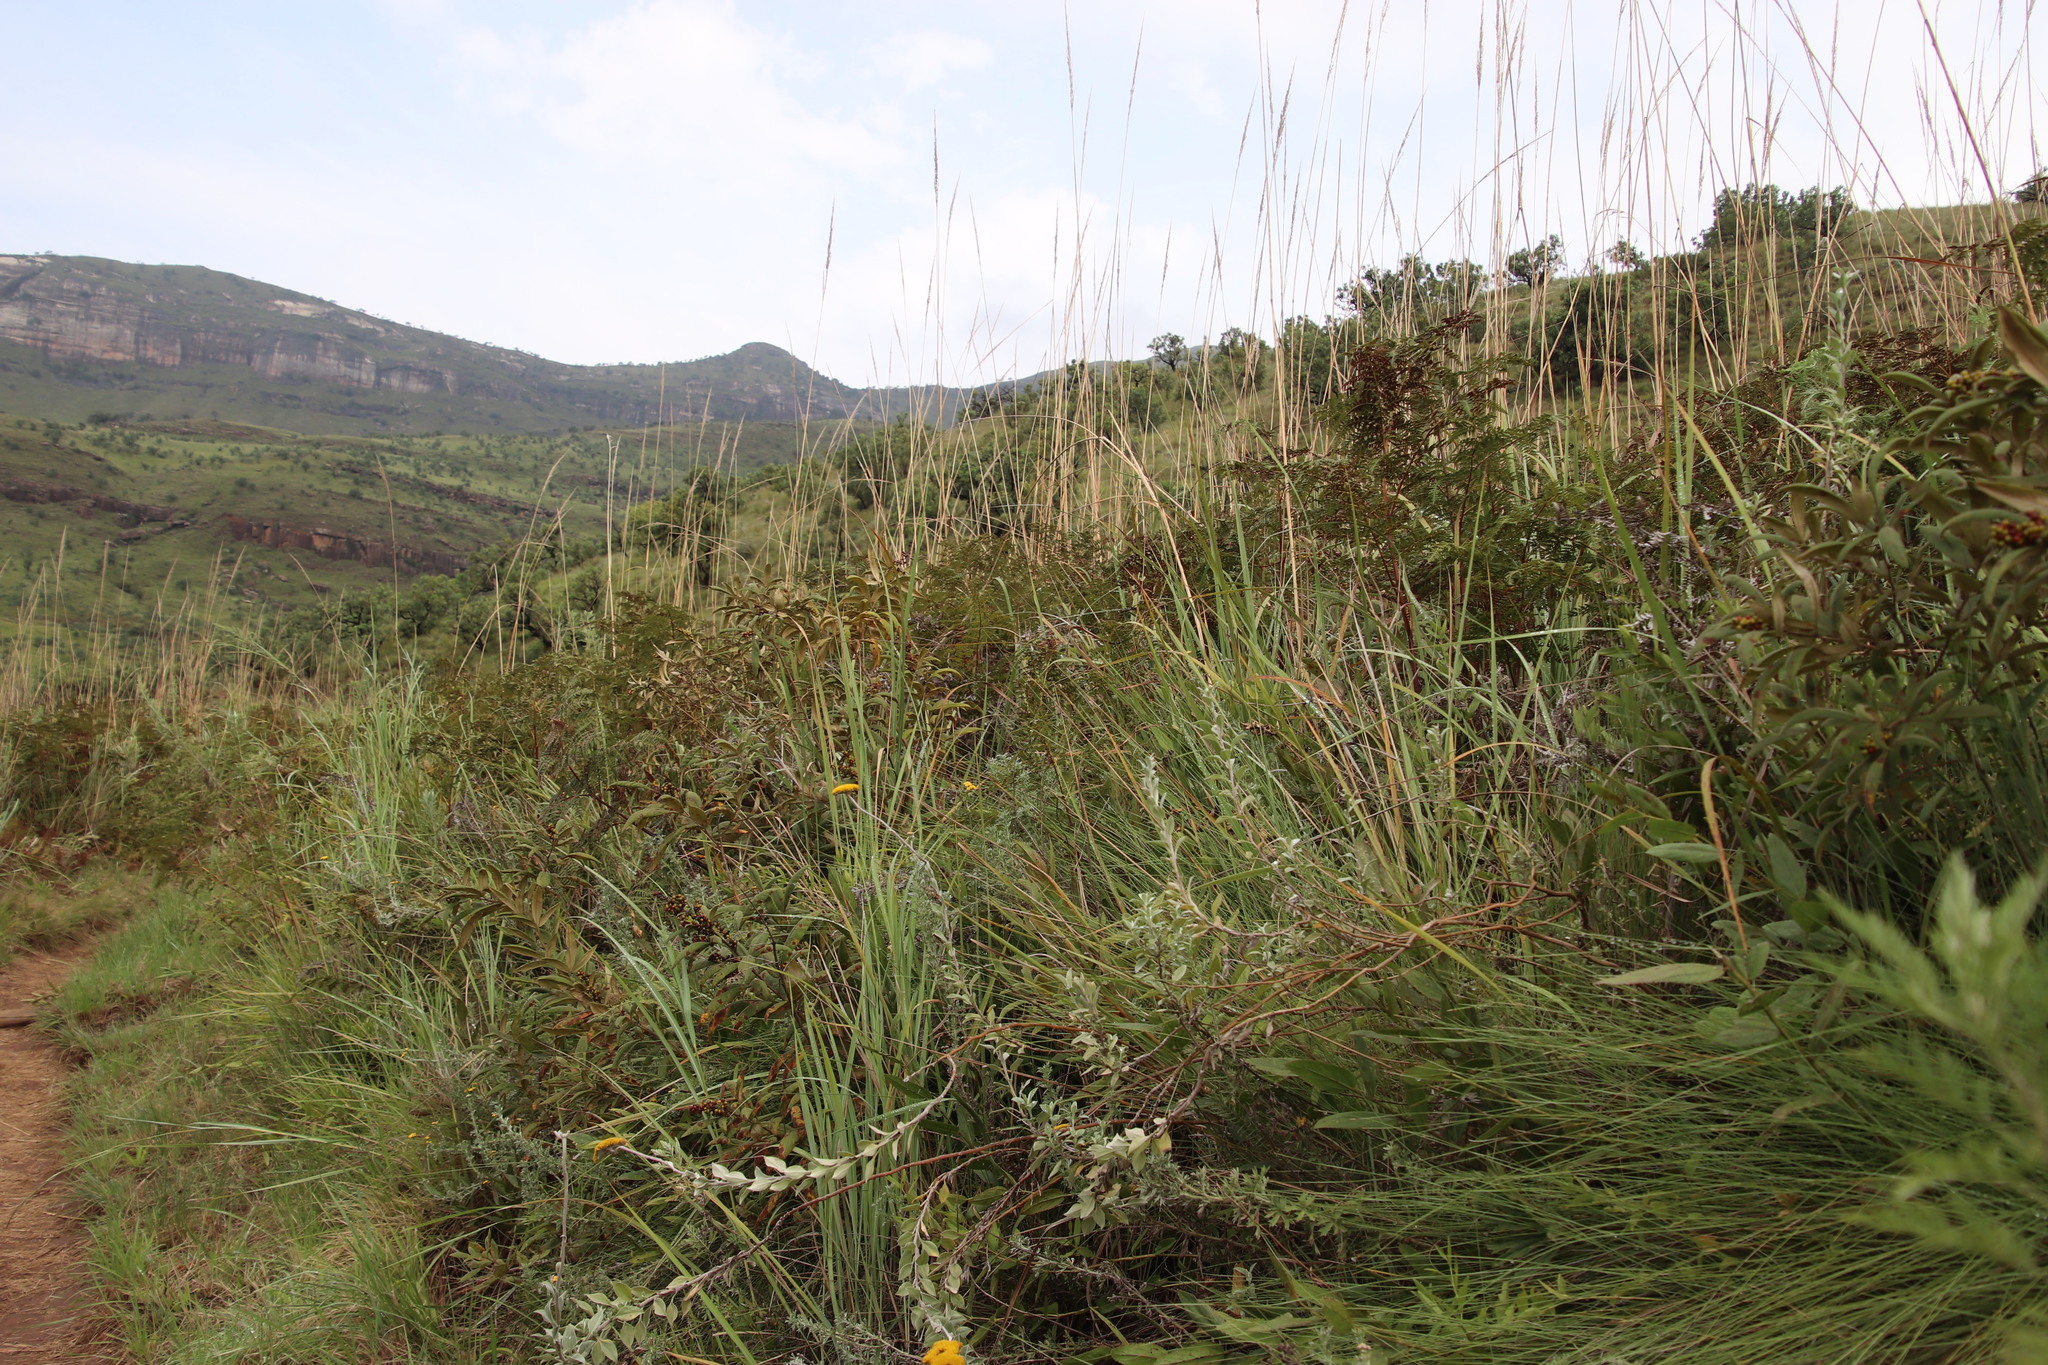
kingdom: Plantae
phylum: Tracheophyta
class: Magnoliopsida
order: Sapindales
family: Anacardiaceae
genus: Searsia
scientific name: Searsia discolor
